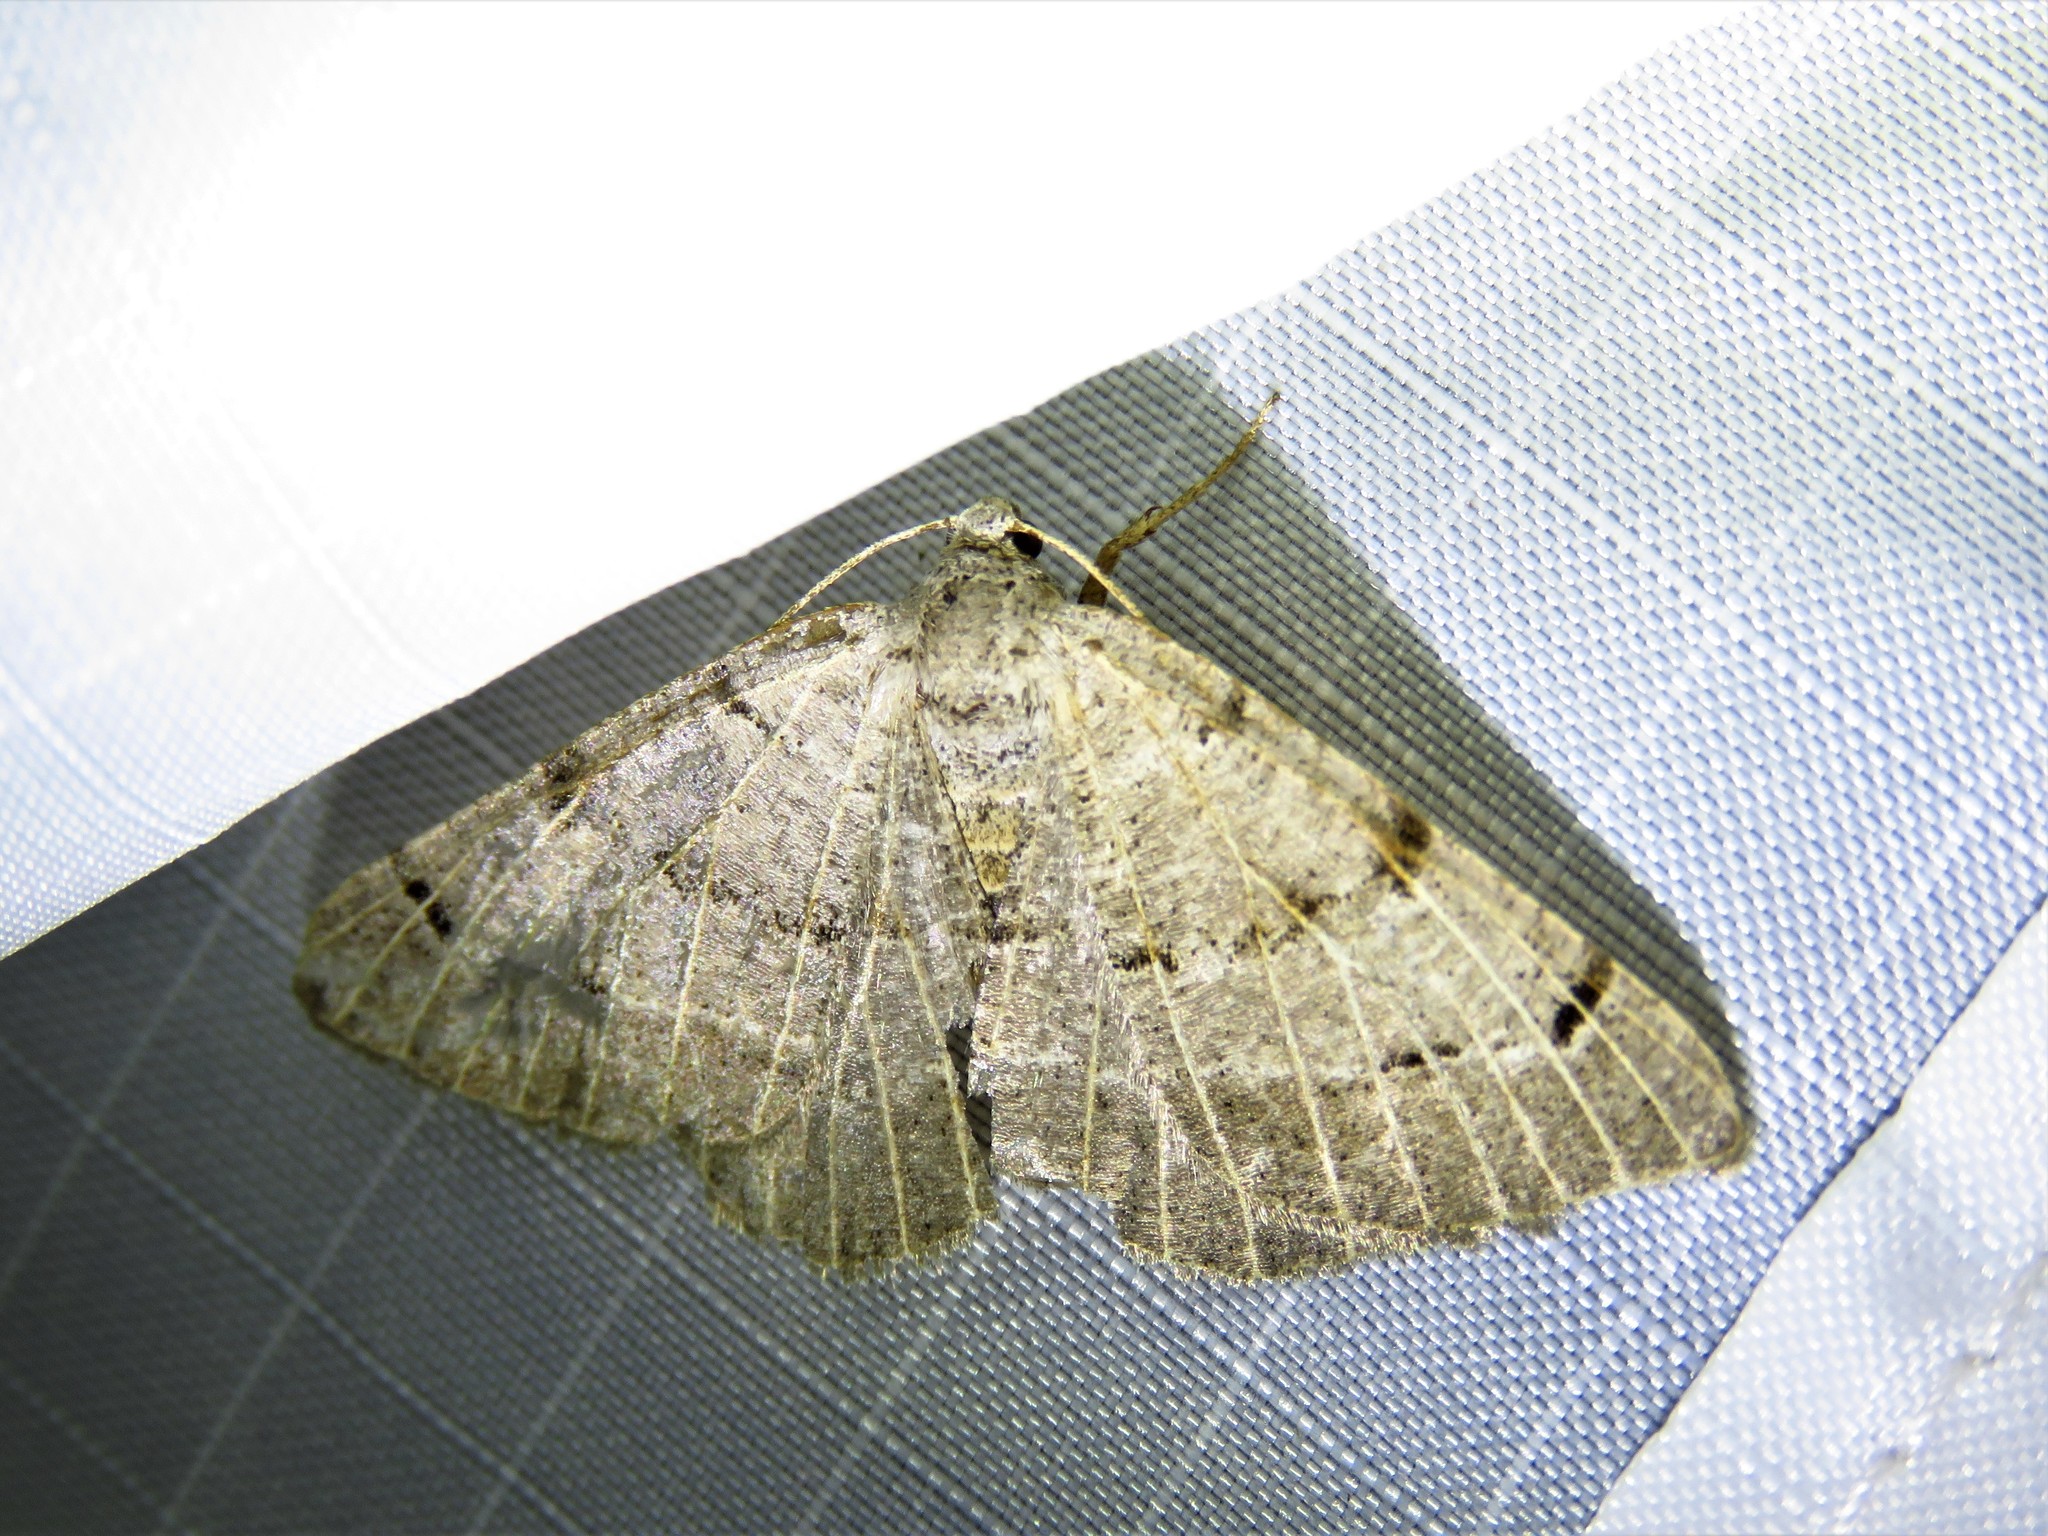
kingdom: Animalia
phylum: Arthropoda
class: Insecta
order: Lepidoptera
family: Geometridae
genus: Isturgia
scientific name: Isturgia dislocaria
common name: Pale-viened enconista
